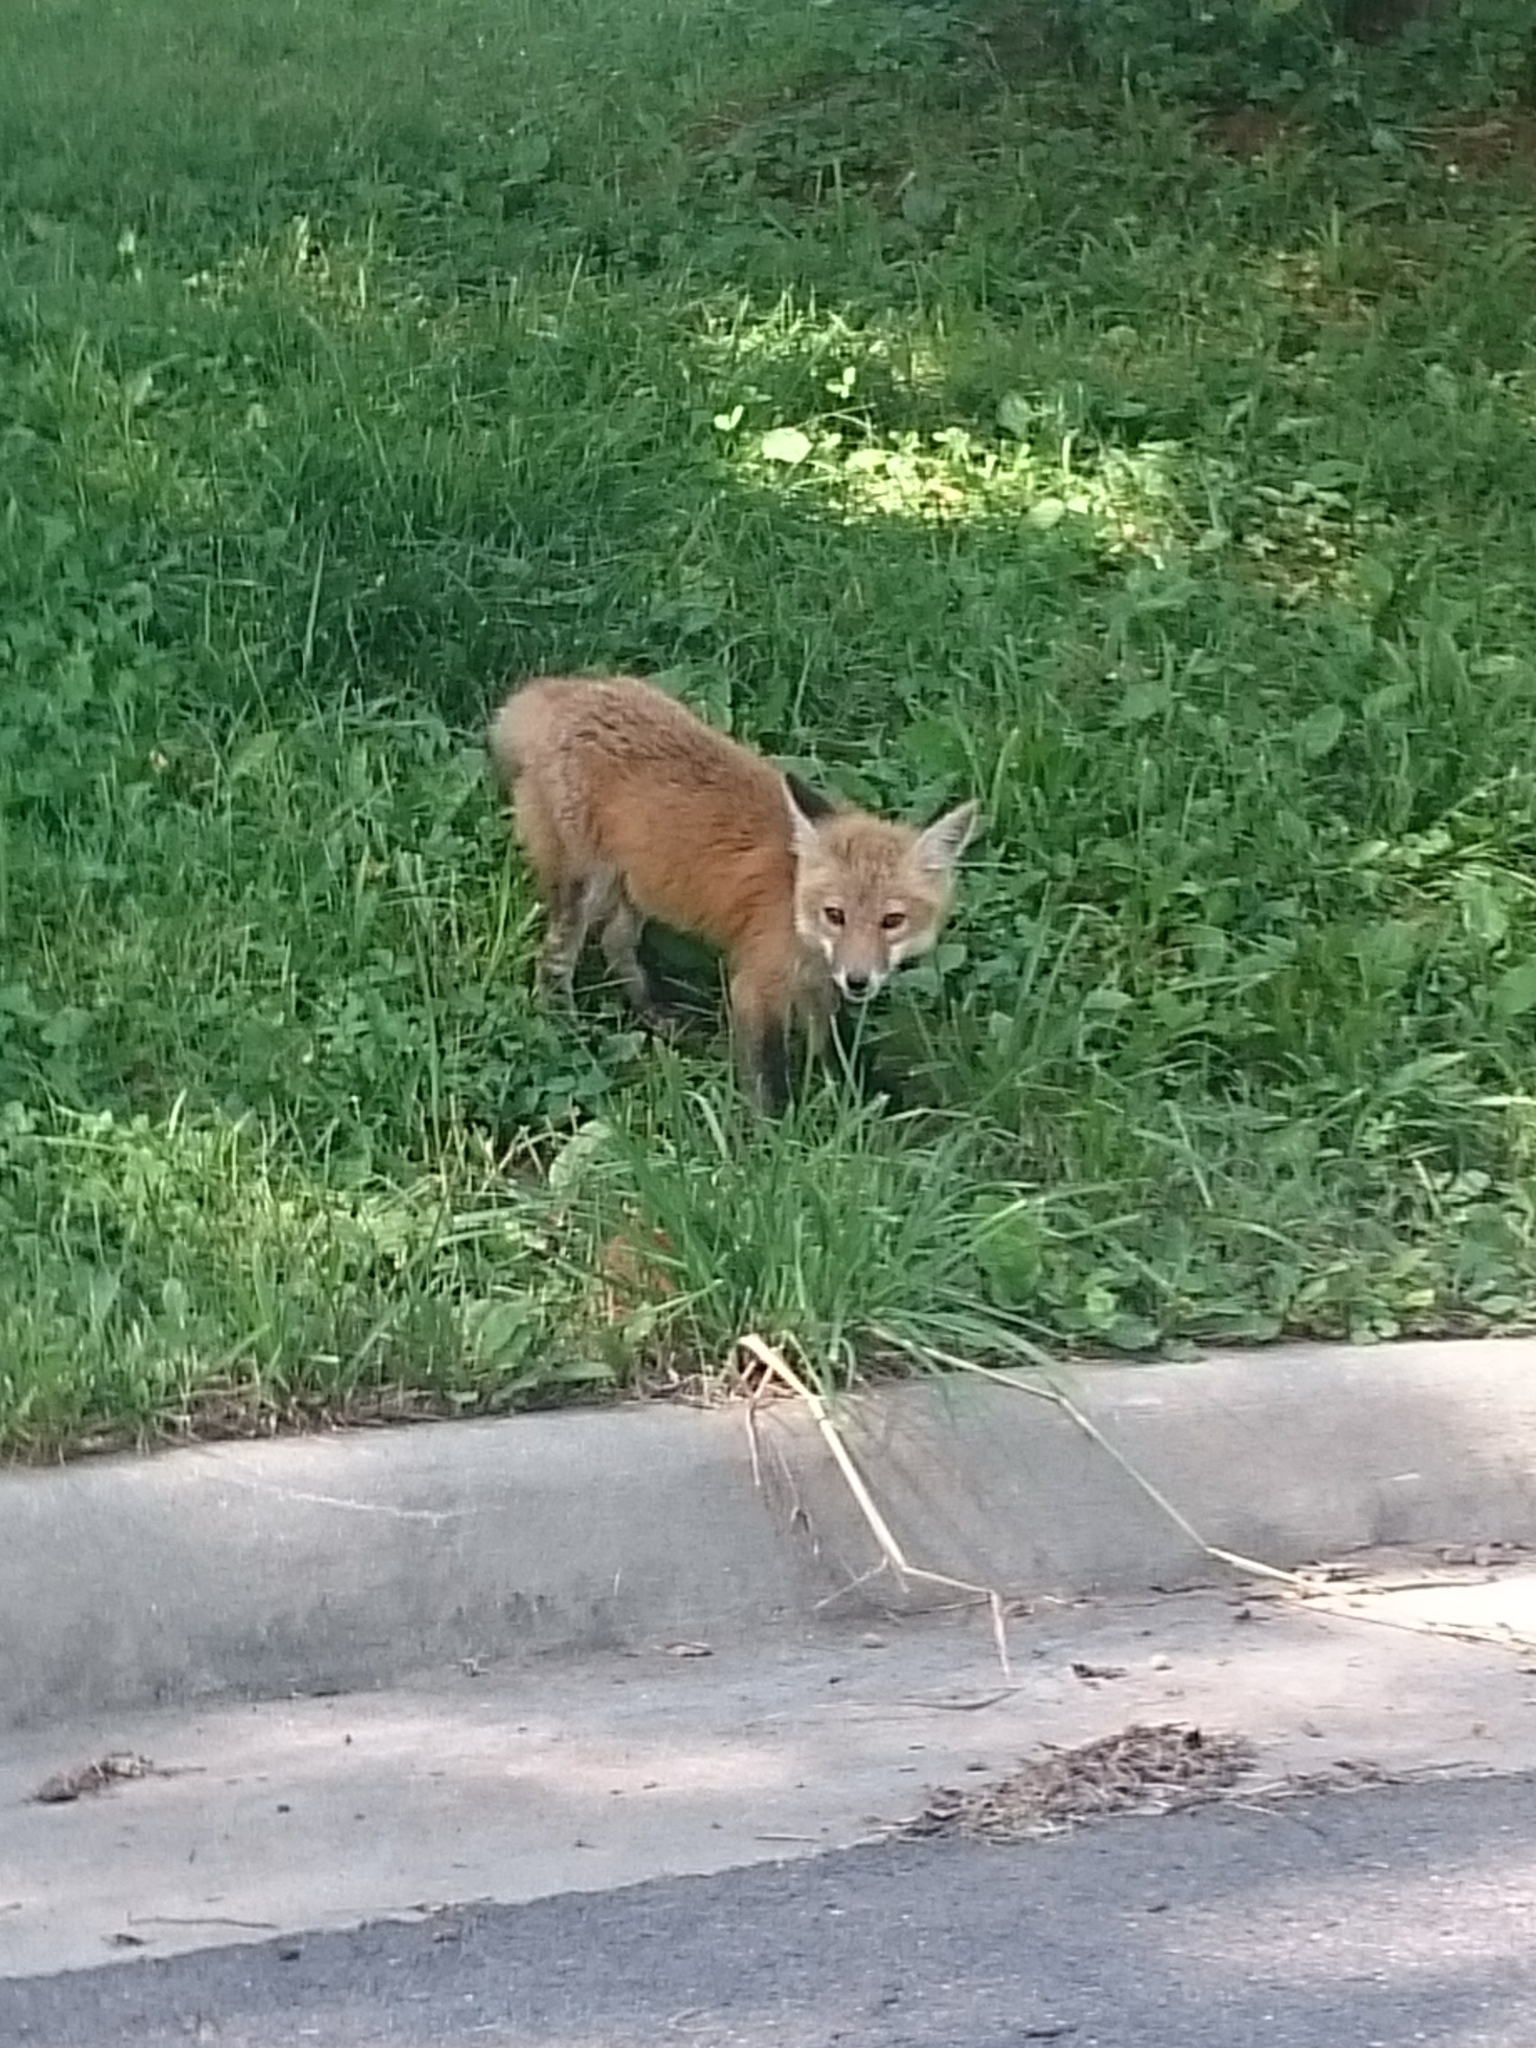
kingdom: Animalia
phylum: Chordata
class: Mammalia
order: Carnivora
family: Canidae
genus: Vulpes
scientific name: Vulpes vulpes
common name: Red fox
